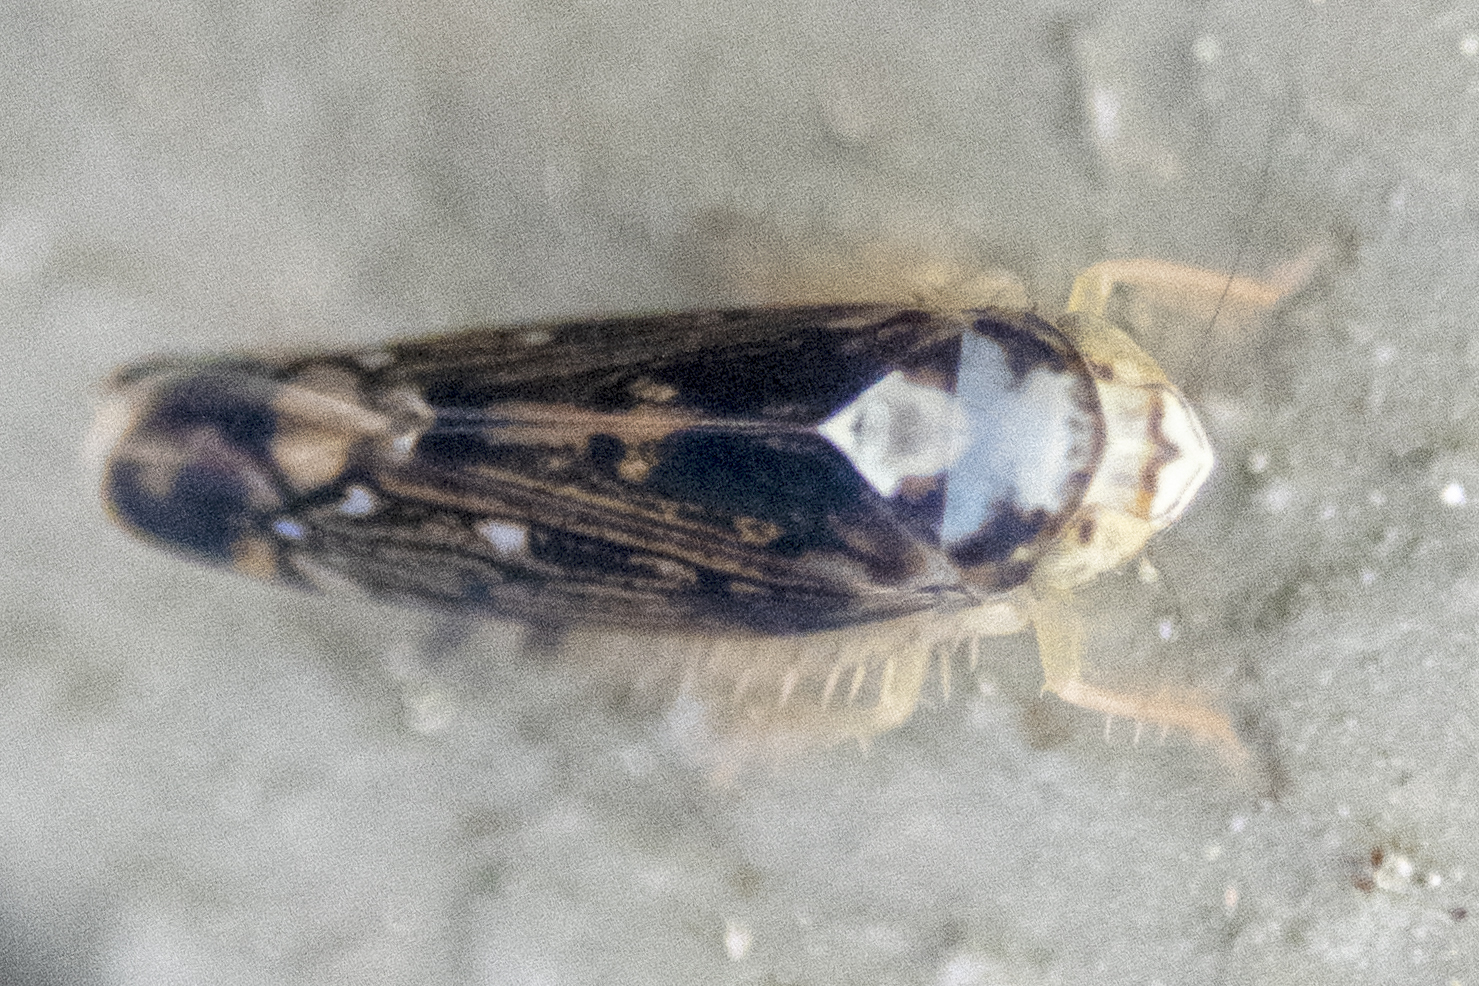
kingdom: Animalia
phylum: Arthropoda
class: Insecta
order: Hemiptera
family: Cicadellidae
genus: Scaphoideus
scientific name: Scaphoideus pullus
